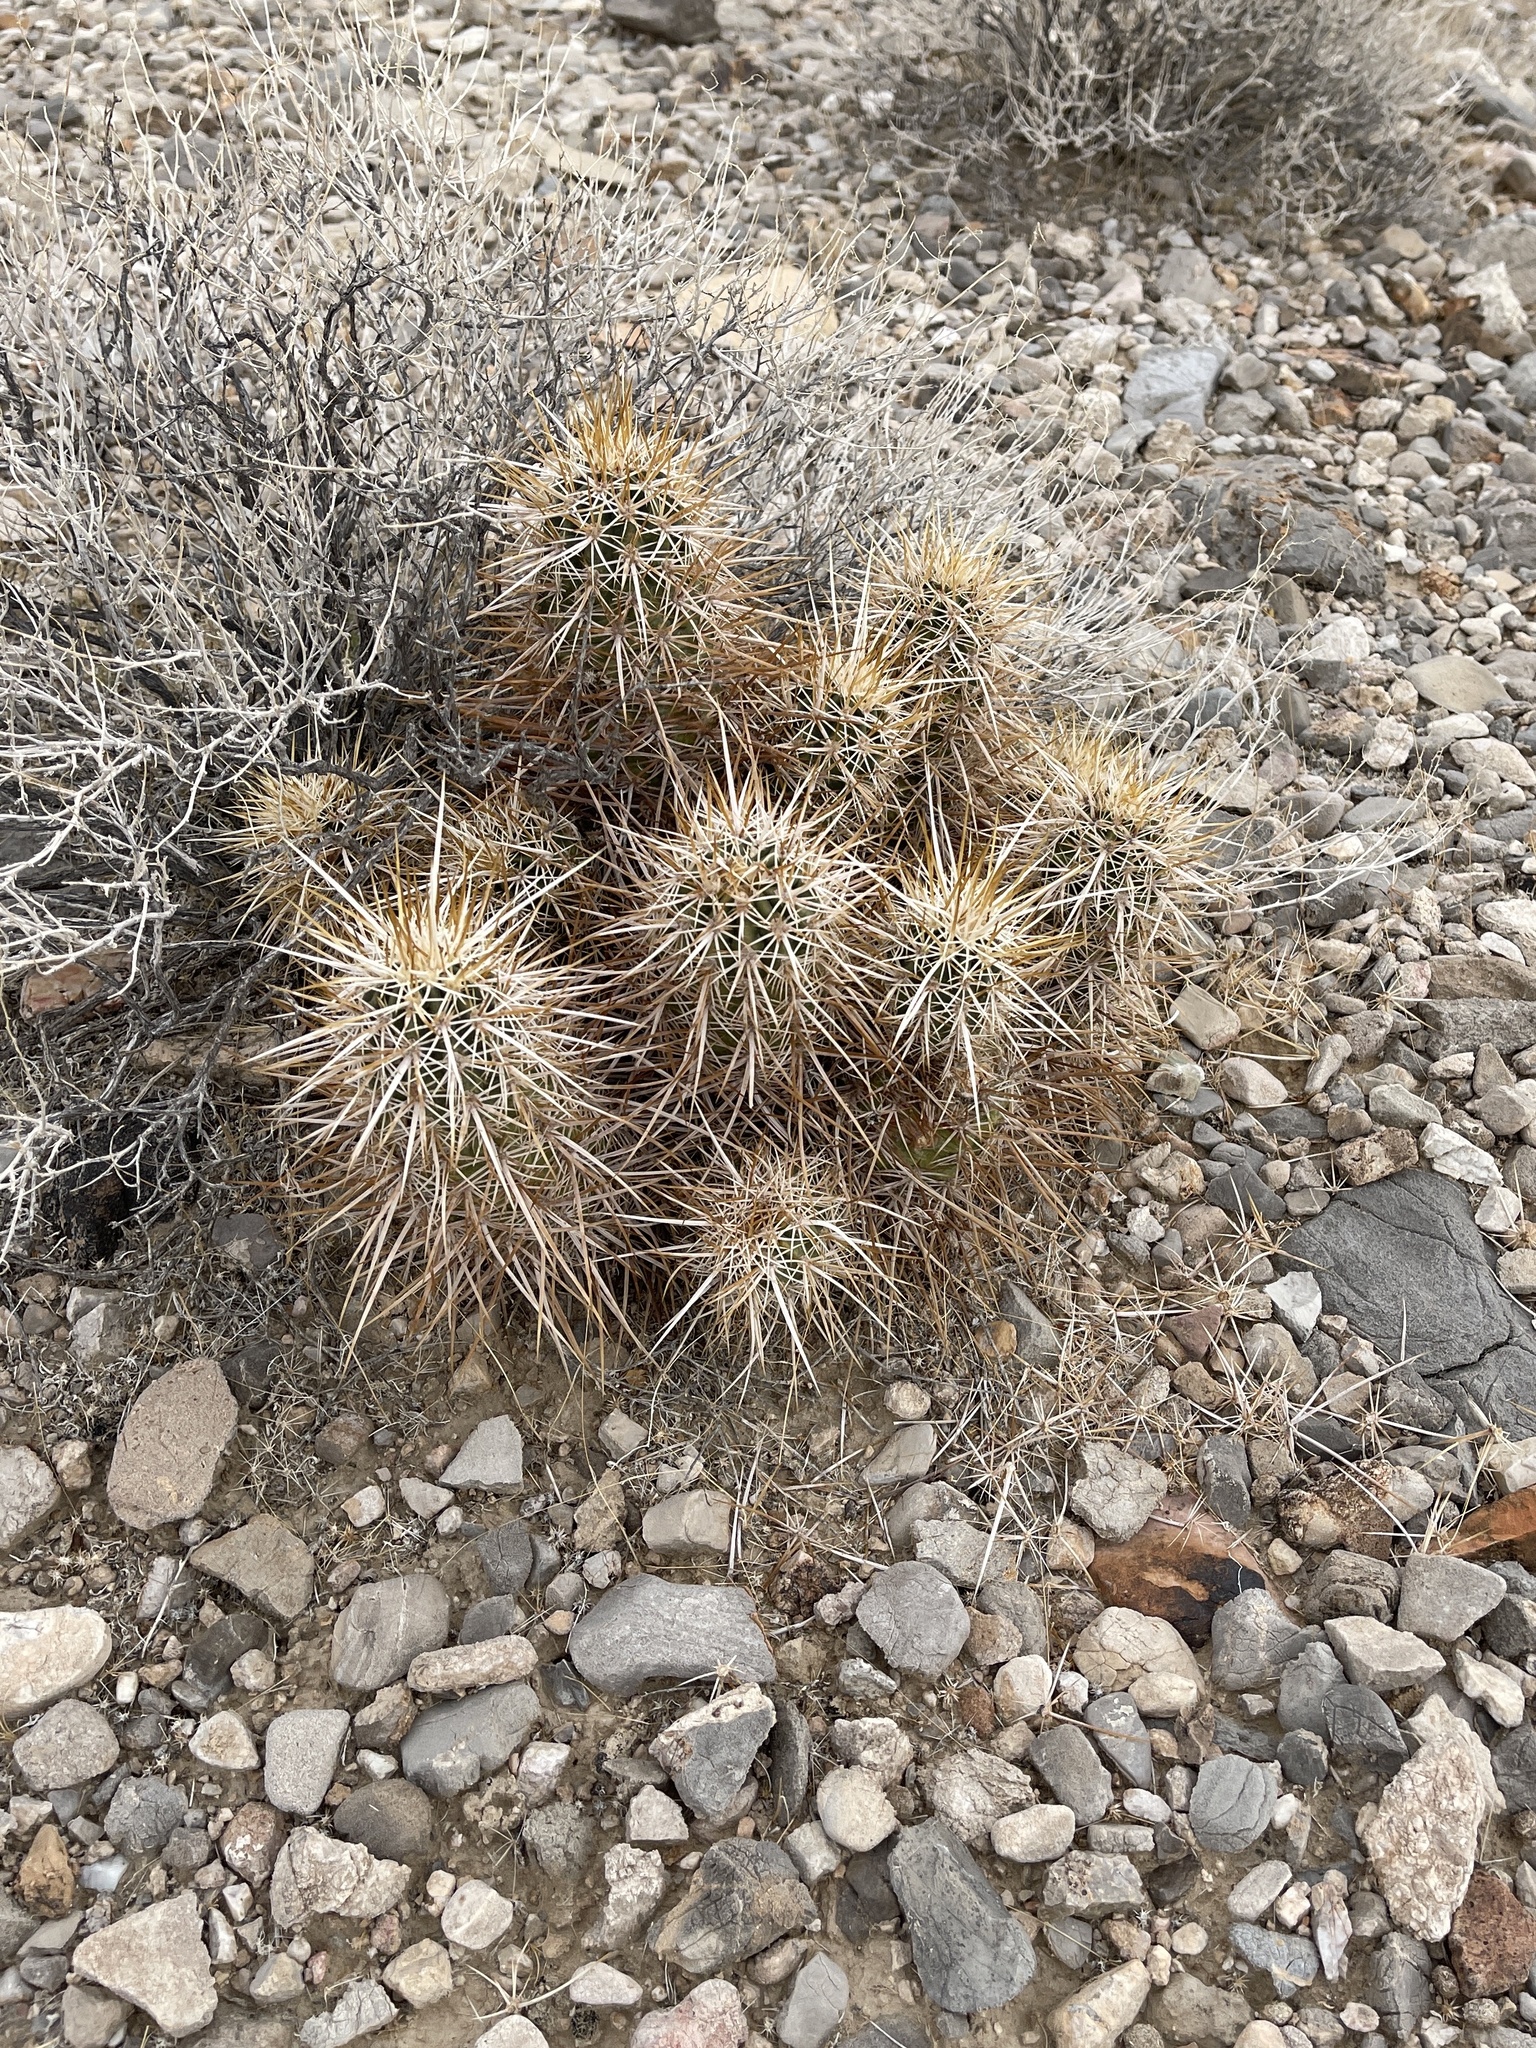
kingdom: Plantae
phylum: Tracheophyta
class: Magnoliopsida
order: Caryophyllales
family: Cactaceae
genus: Echinocereus
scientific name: Echinocereus engelmannii
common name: Engelmann's hedgehog cactus
